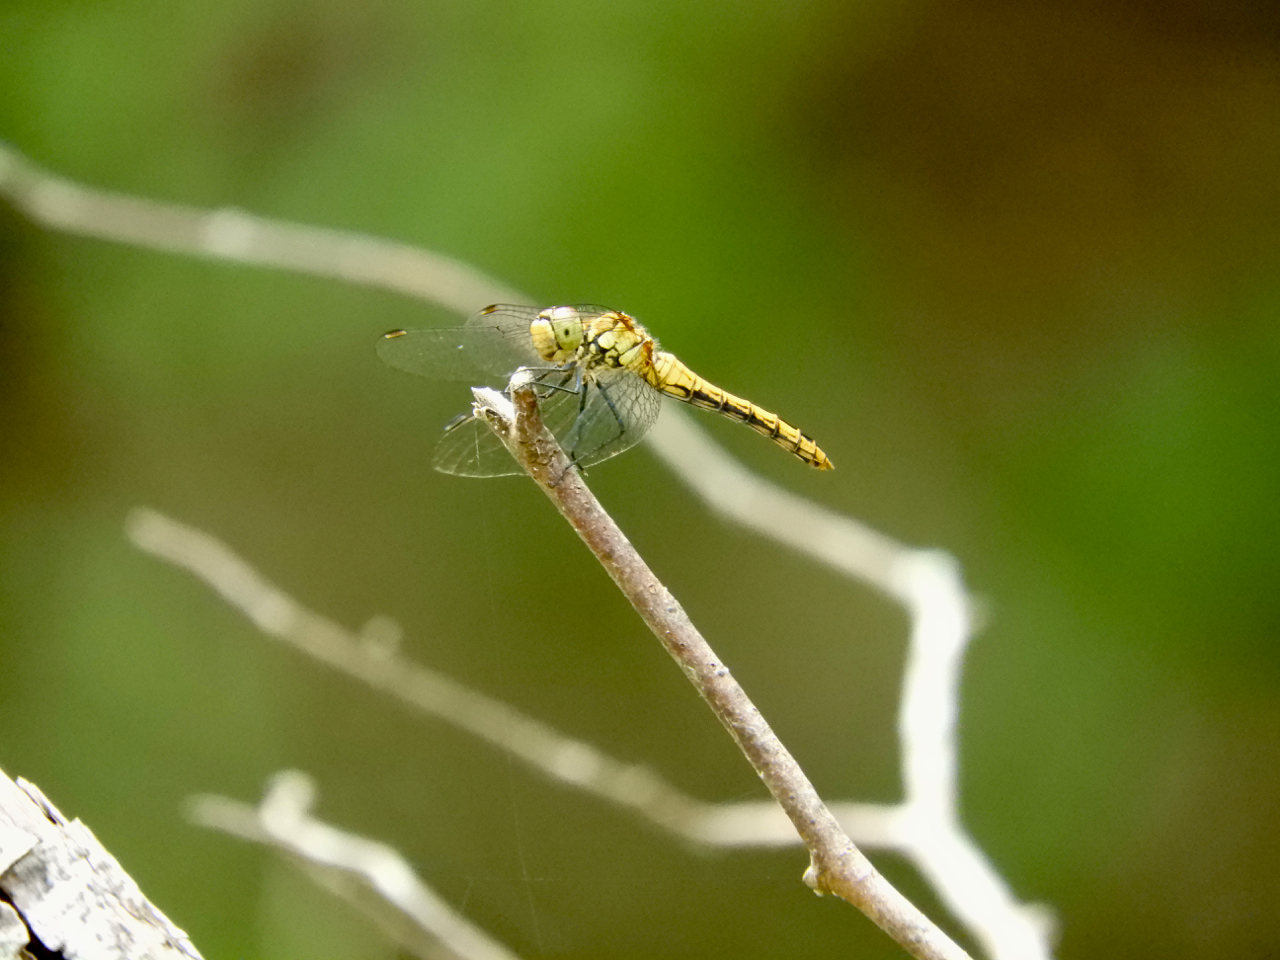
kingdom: Animalia
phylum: Arthropoda
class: Insecta
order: Odonata
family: Libellulidae
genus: Sympetrum
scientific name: Sympetrum sanguineum
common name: Ruddy darter
